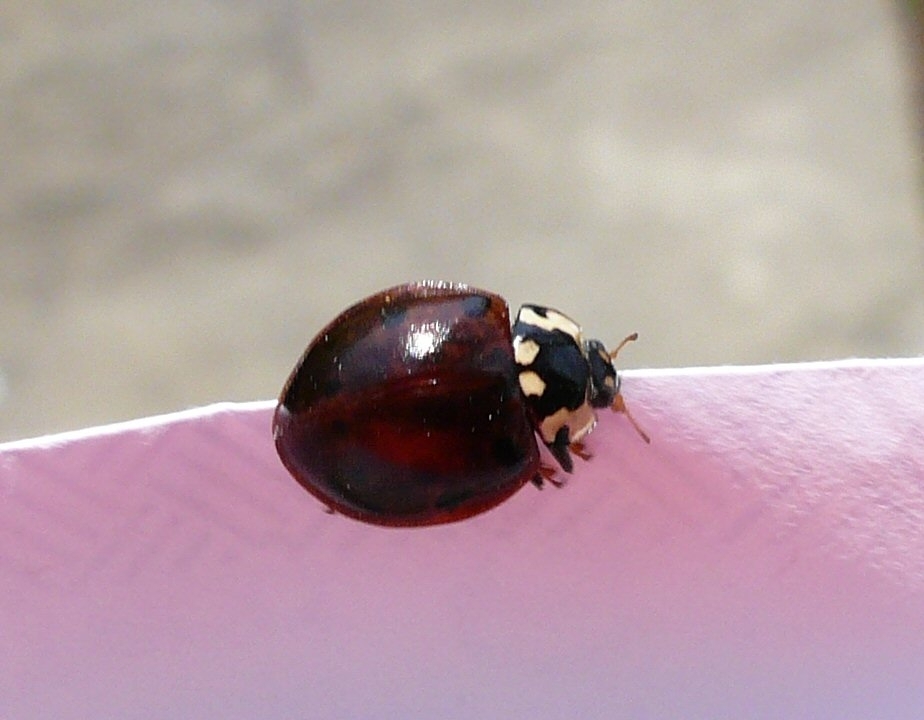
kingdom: Animalia
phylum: Arthropoda
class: Insecta
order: Coleoptera
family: Coccinellidae
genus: Anatis
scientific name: Anatis labiculata
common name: Fifteen-spotted lady beetle
